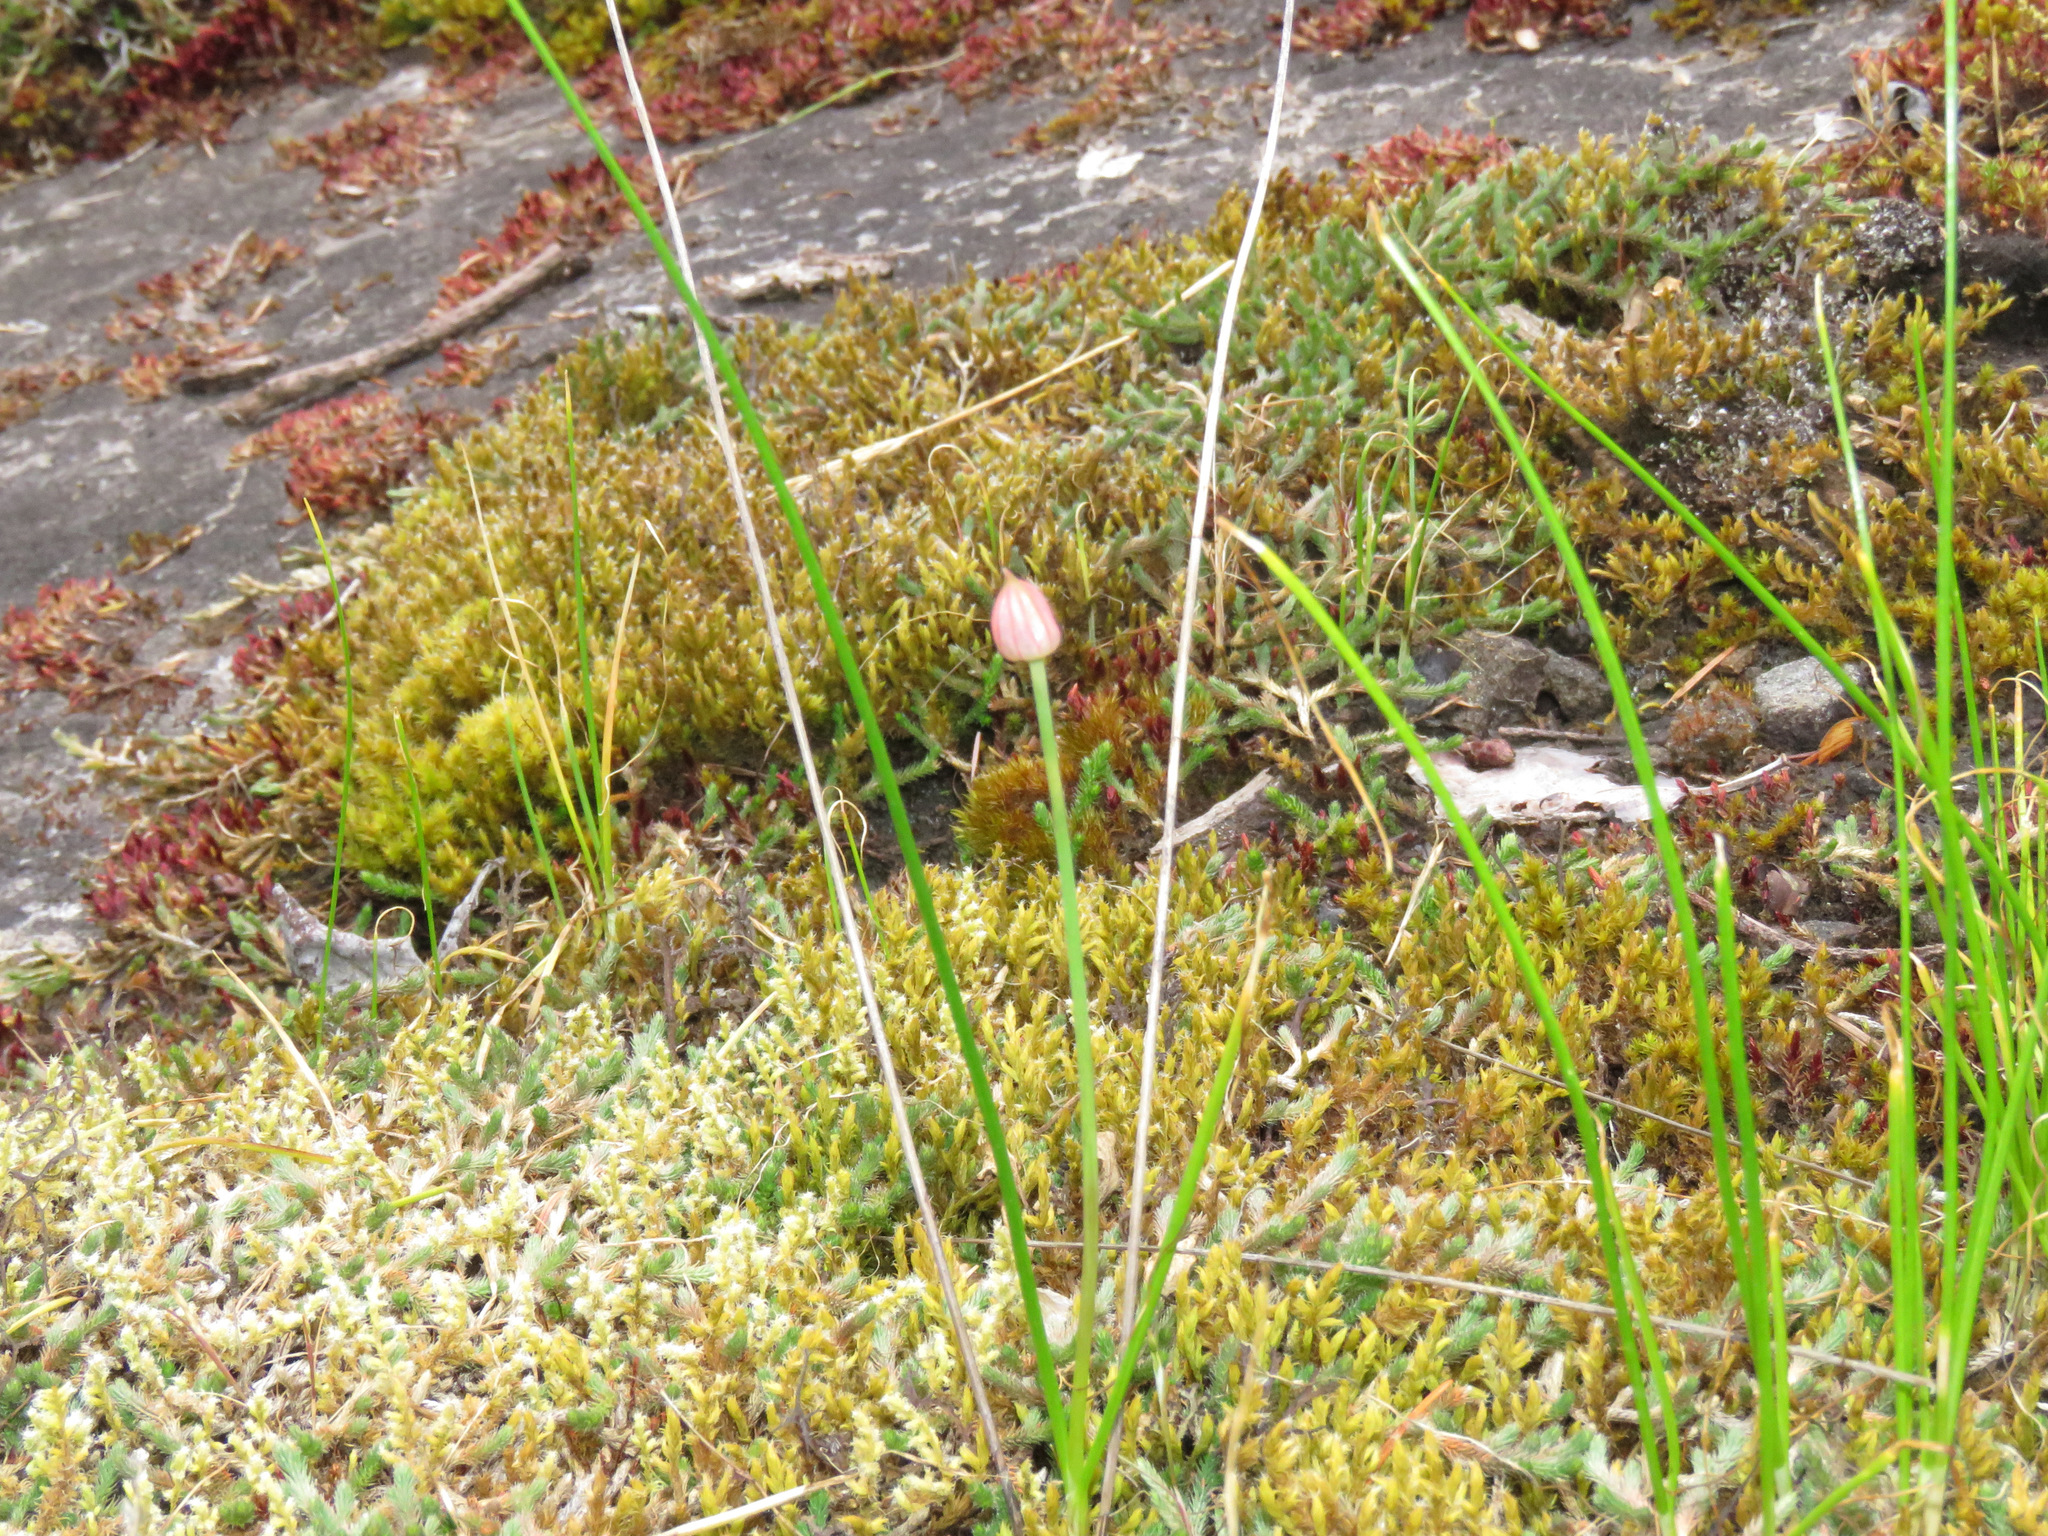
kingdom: Plantae
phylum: Tracheophyta
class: Liliopsida
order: Asparagales
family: Amaryllidaceae
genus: Allium
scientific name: Allium amplectens
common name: Narrow-leaved onion
